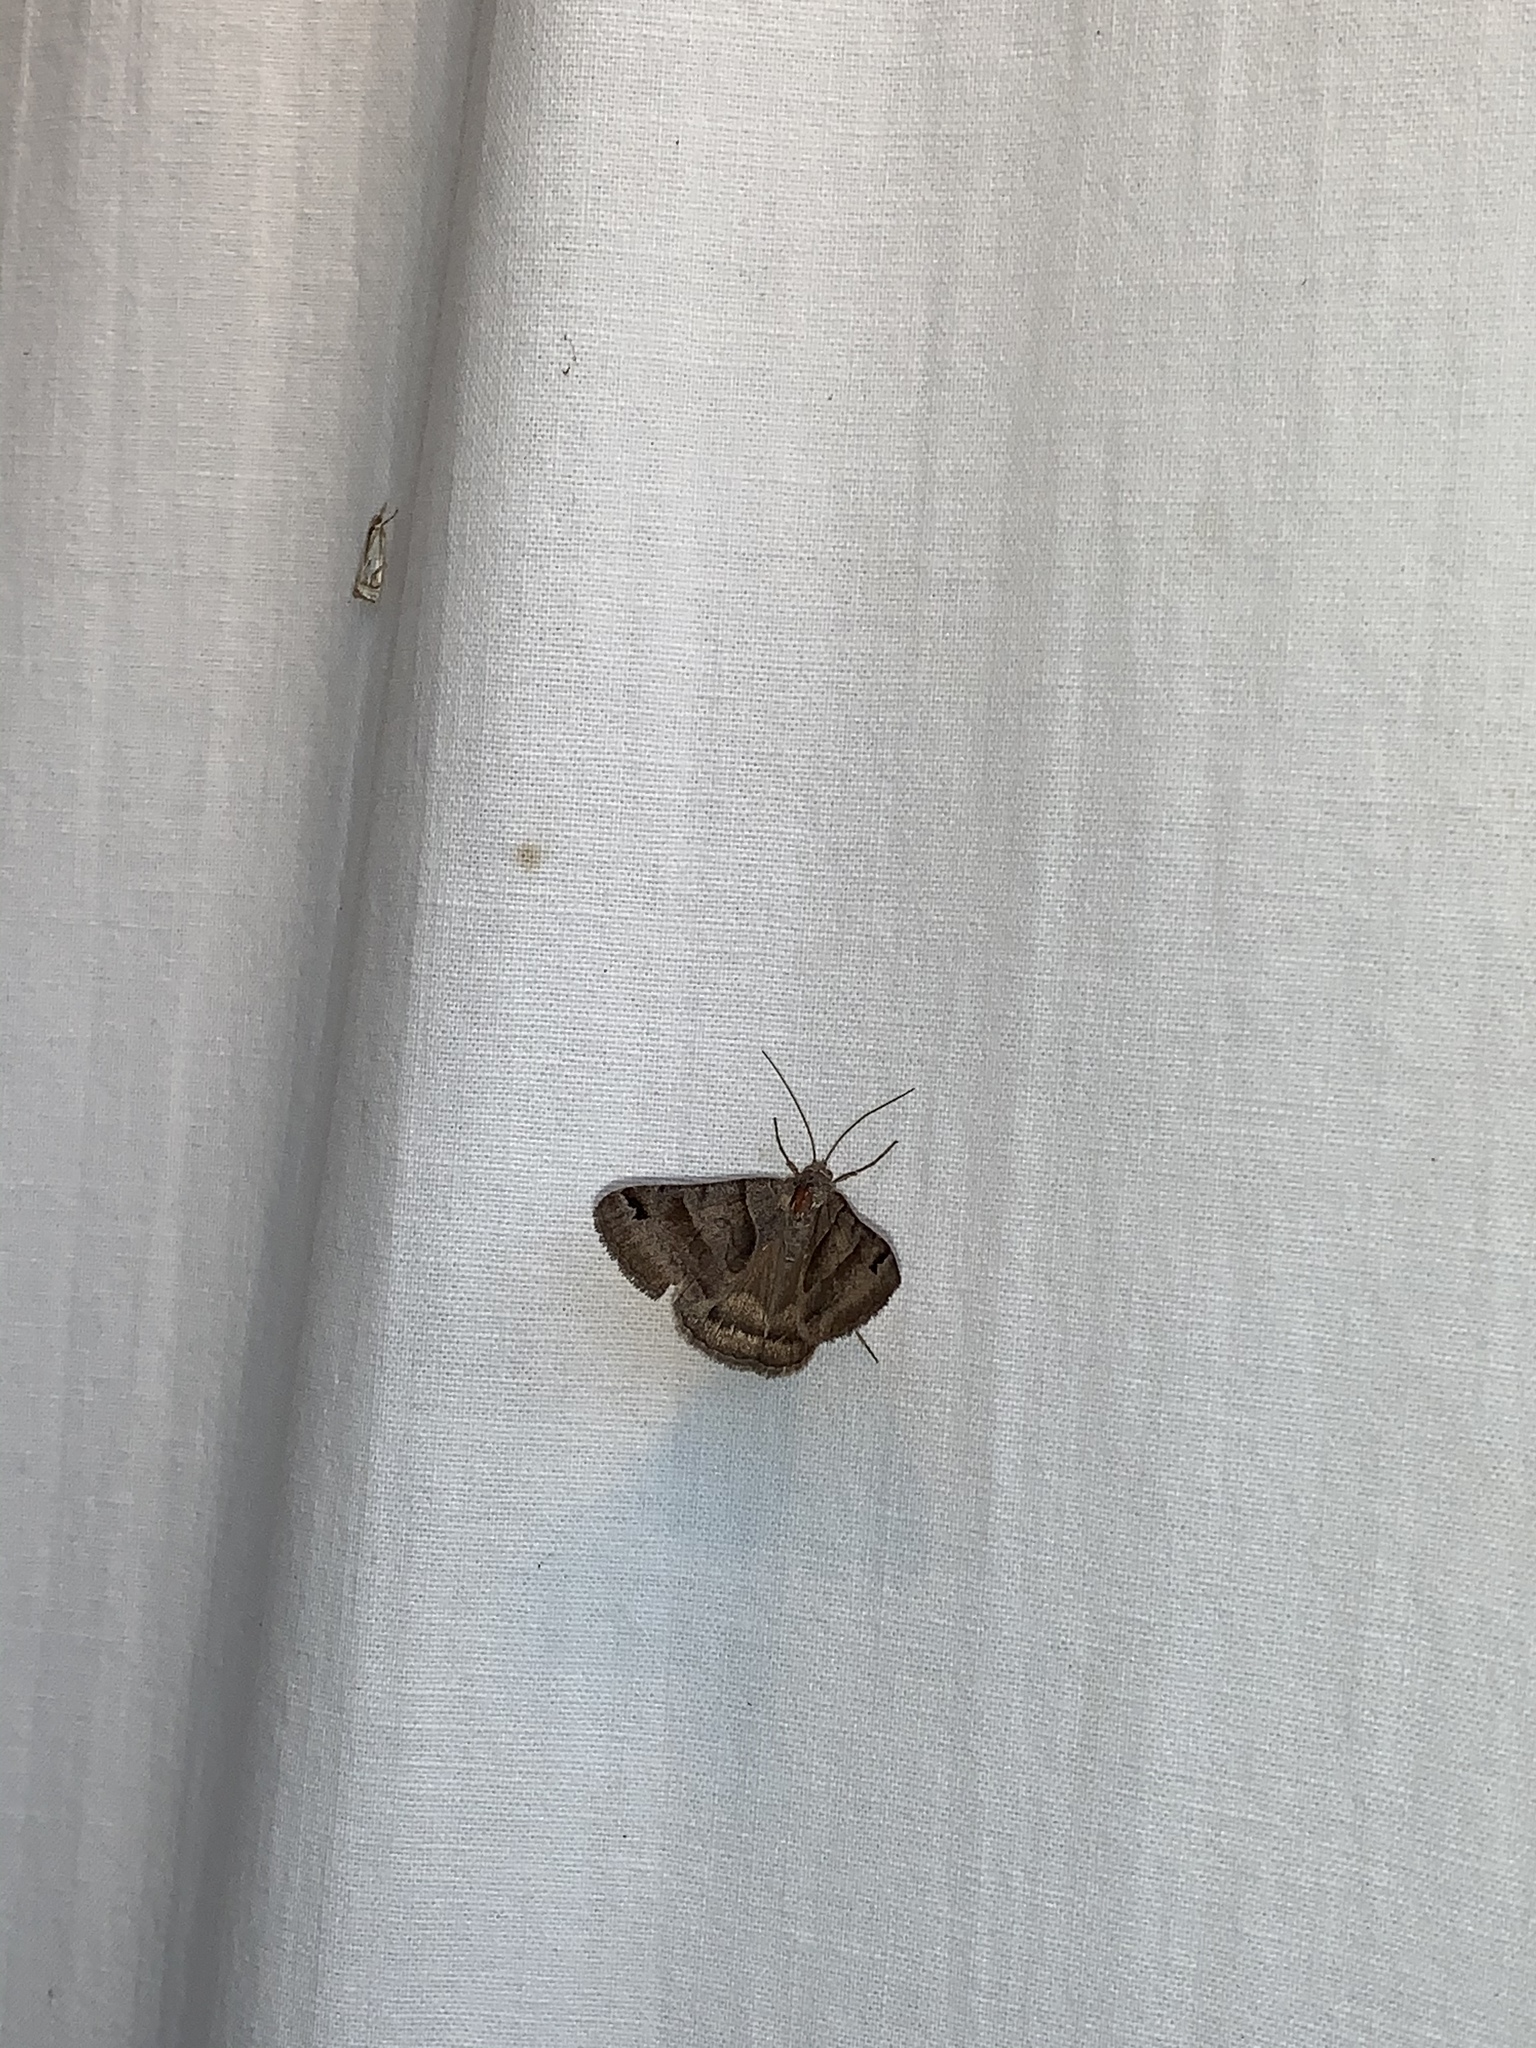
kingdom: Animalia
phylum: Arthropoda
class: Insecta
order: Lepidoptera
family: Erebidae
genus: Caenurgina
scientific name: Caenurgina erechtea
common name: Forage looper moth
